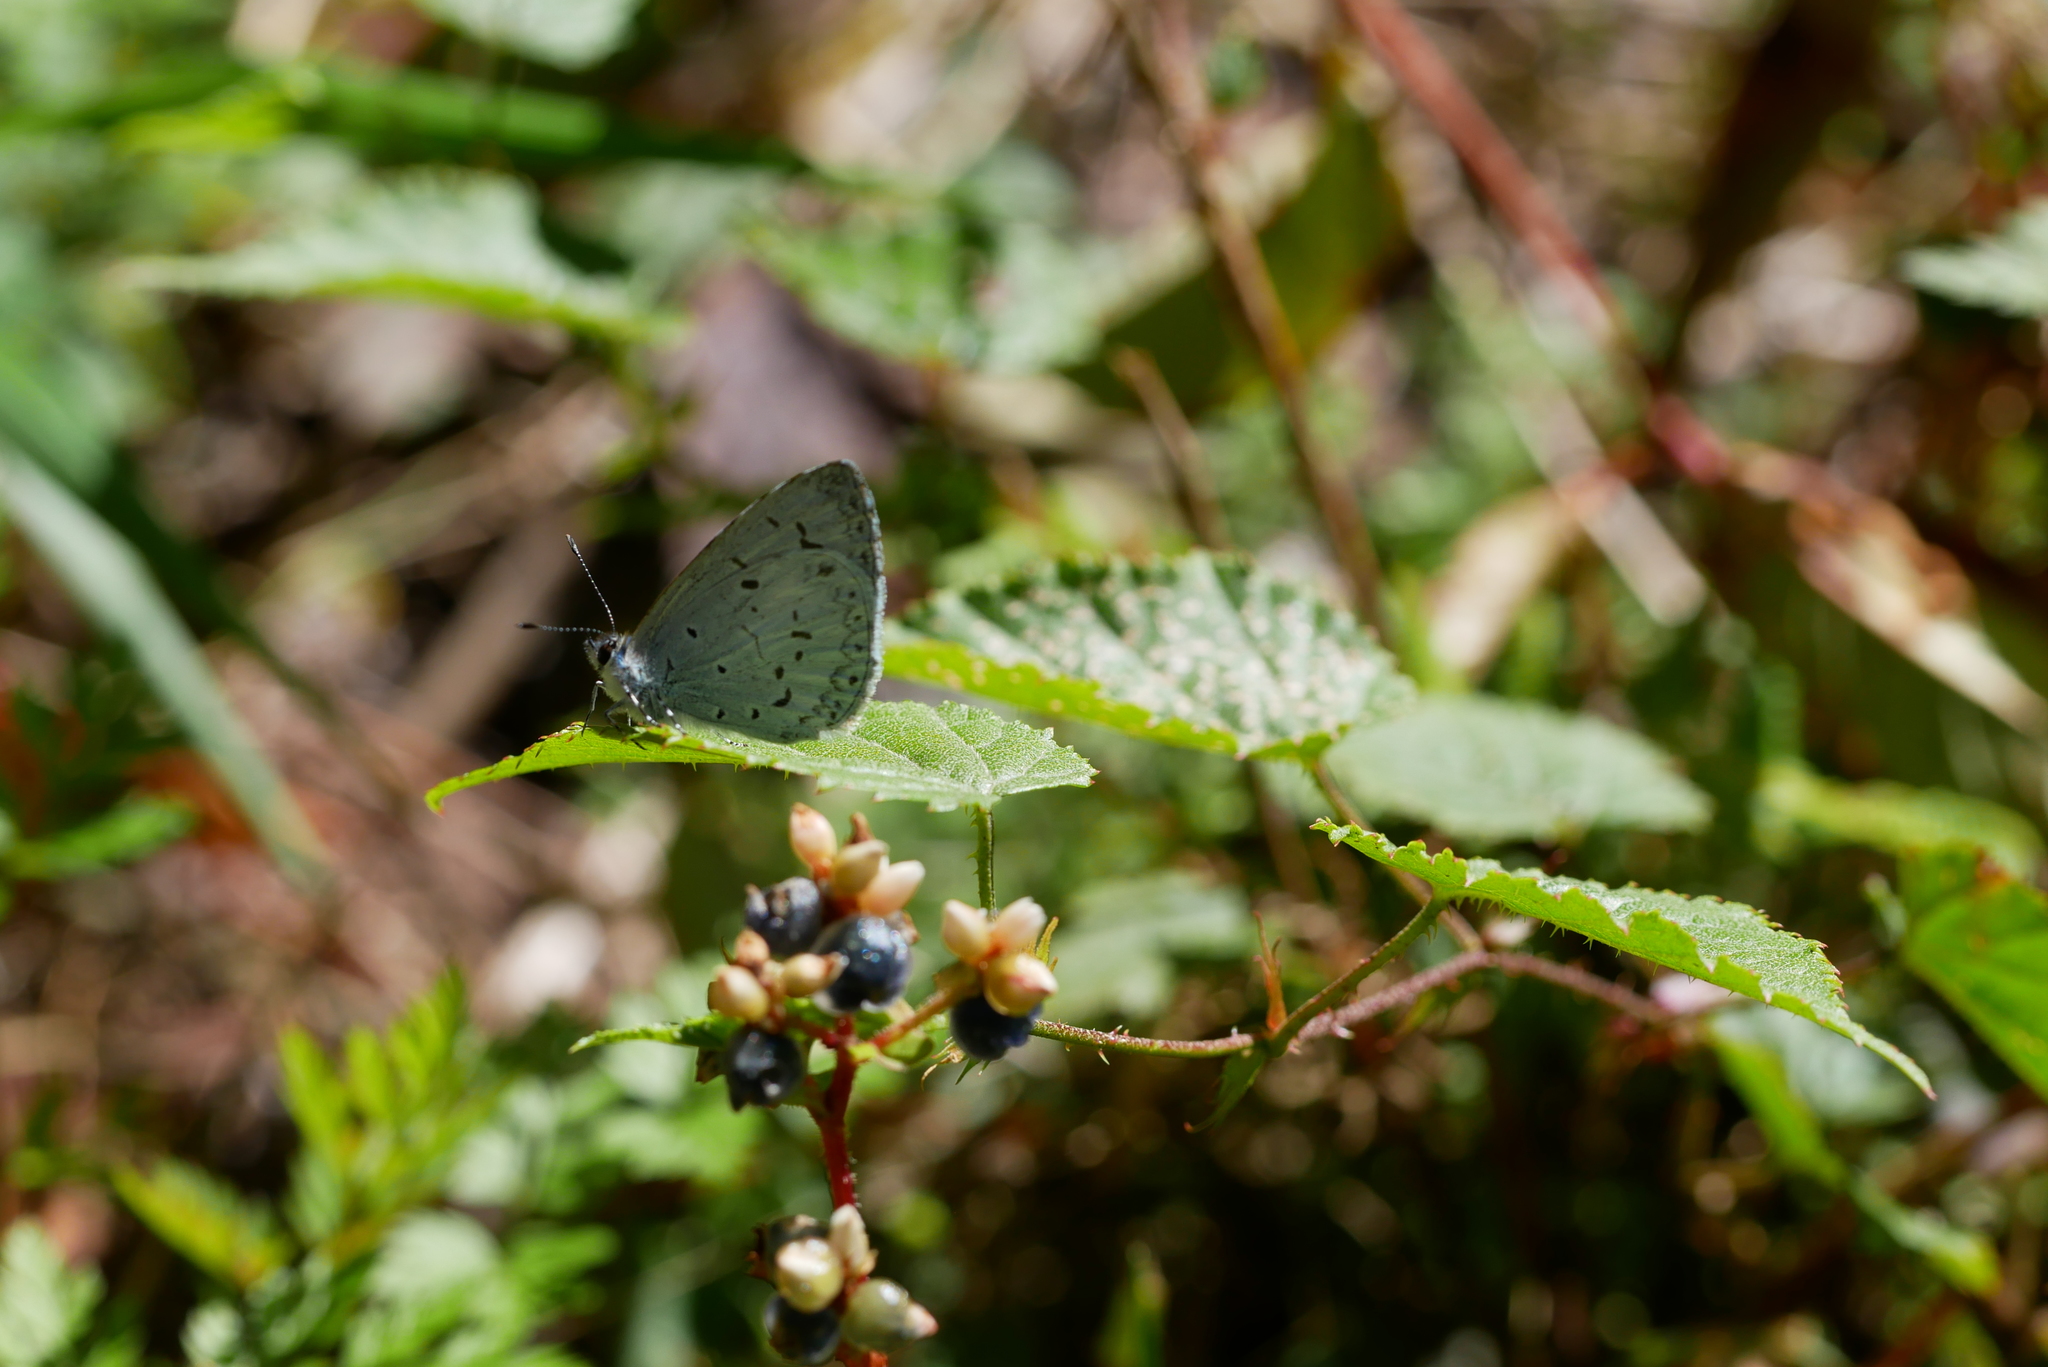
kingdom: Animalia
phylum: Arthropoda
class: Insecta
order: Lepidoptera
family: Lycaenidae
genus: Acytolepis
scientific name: Acytolepis puspa
